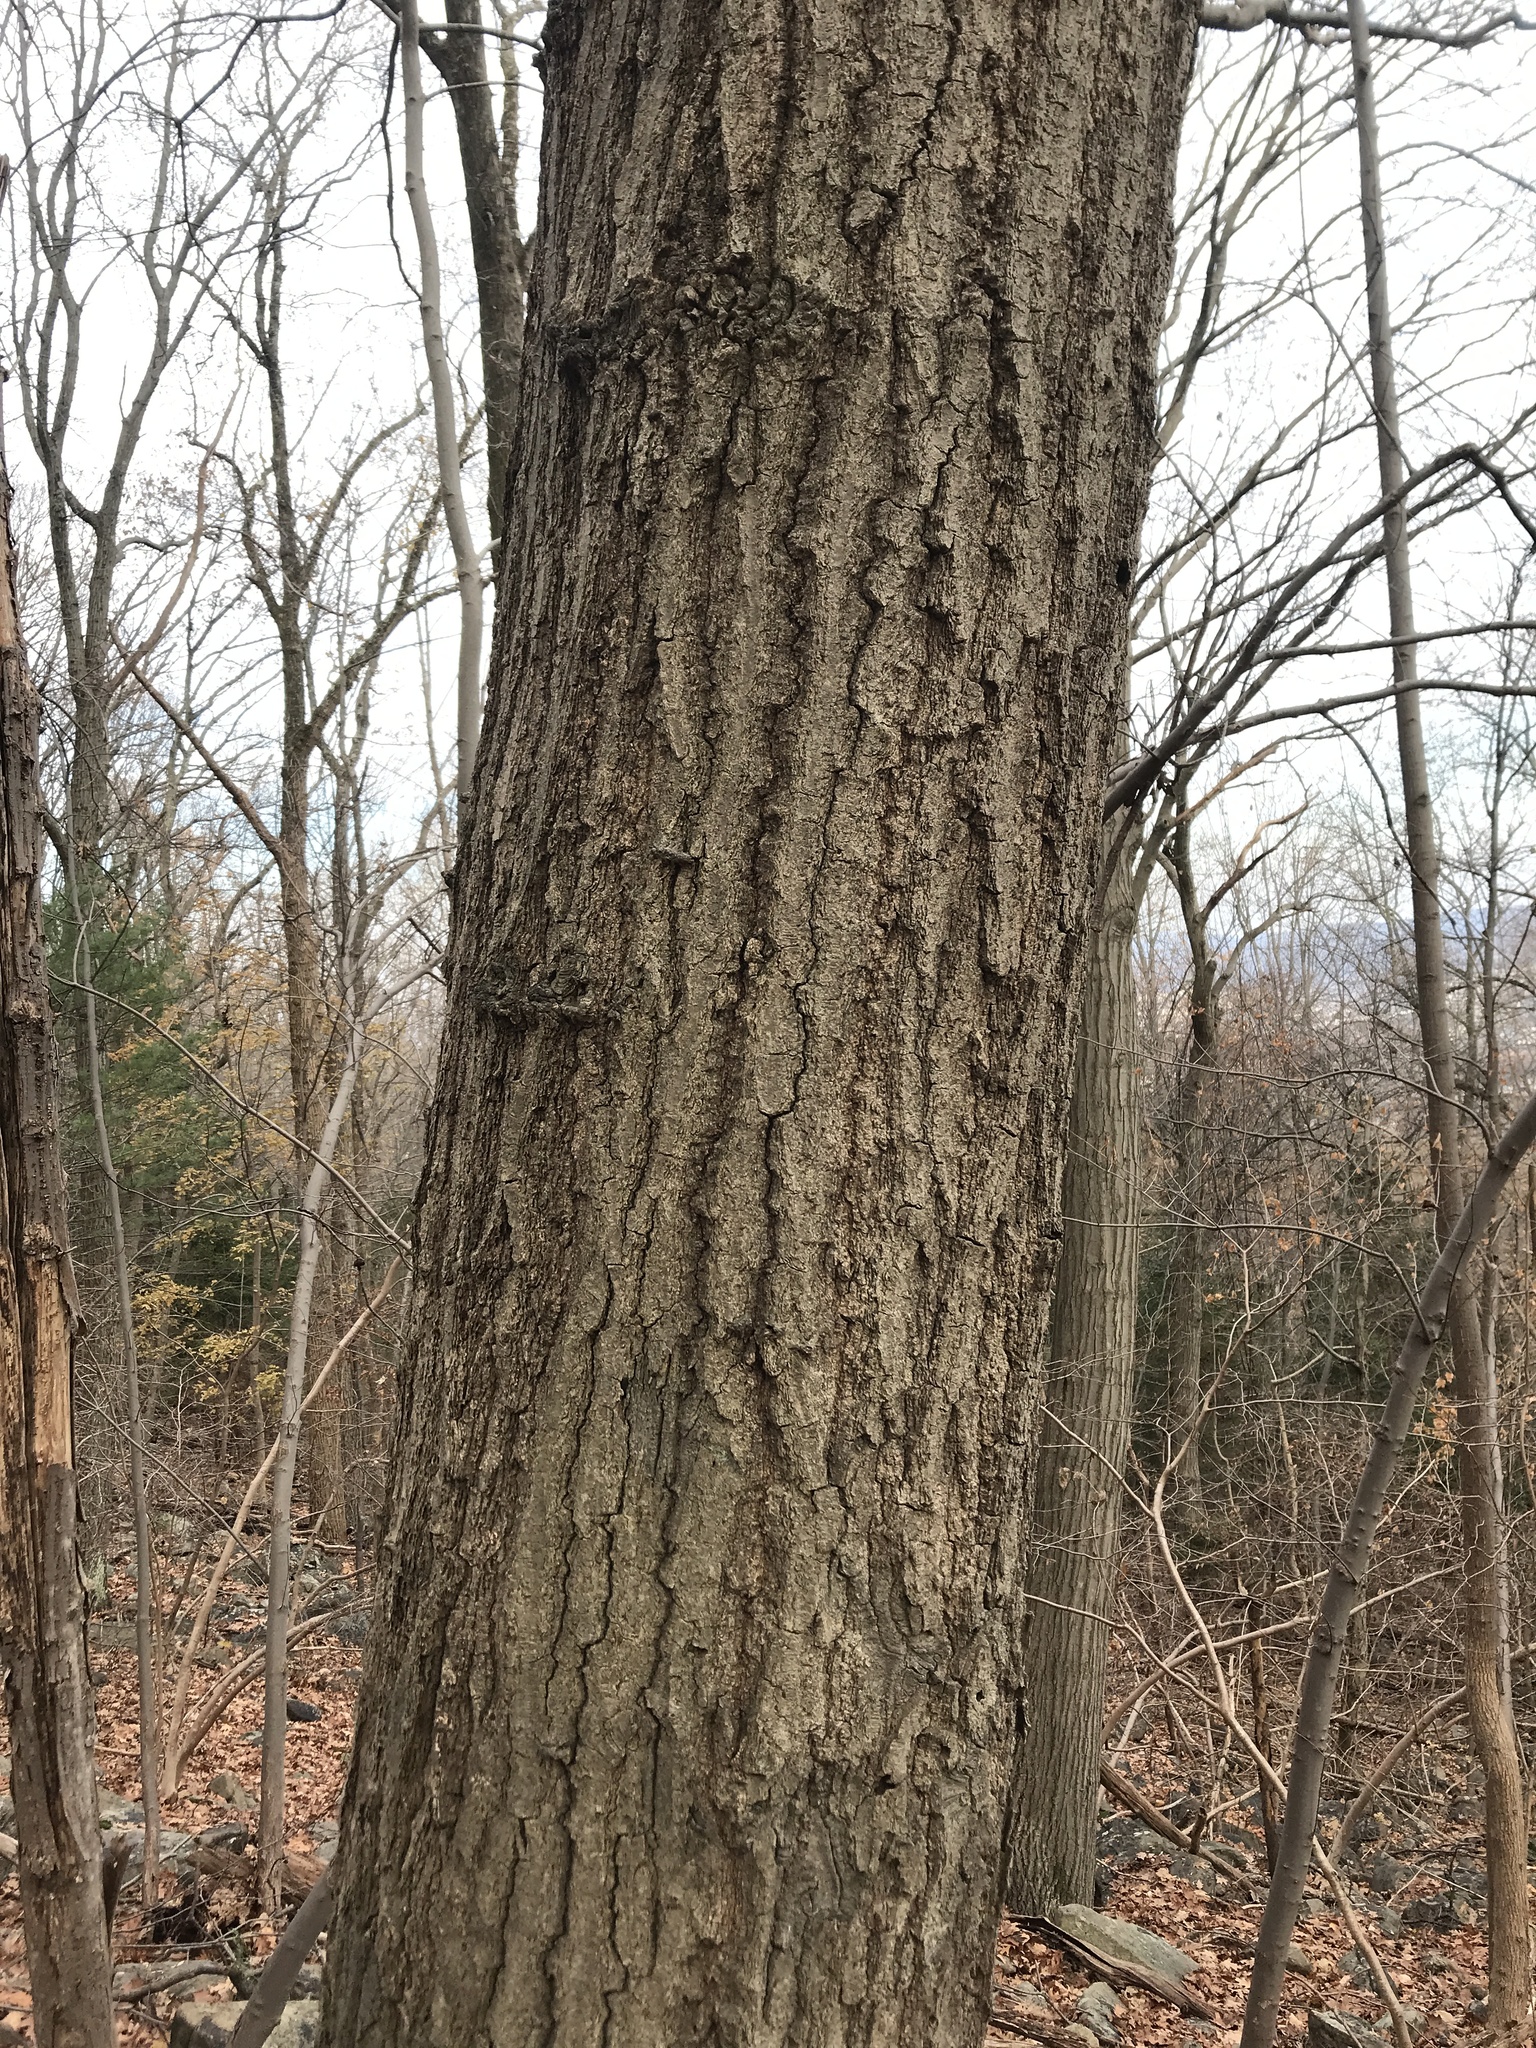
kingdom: Plantae
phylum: Tracheophyta
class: Magnoliopsida
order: Fagales
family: Fagaceae
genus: Quercus
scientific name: Quercus rubra
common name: Red oak
